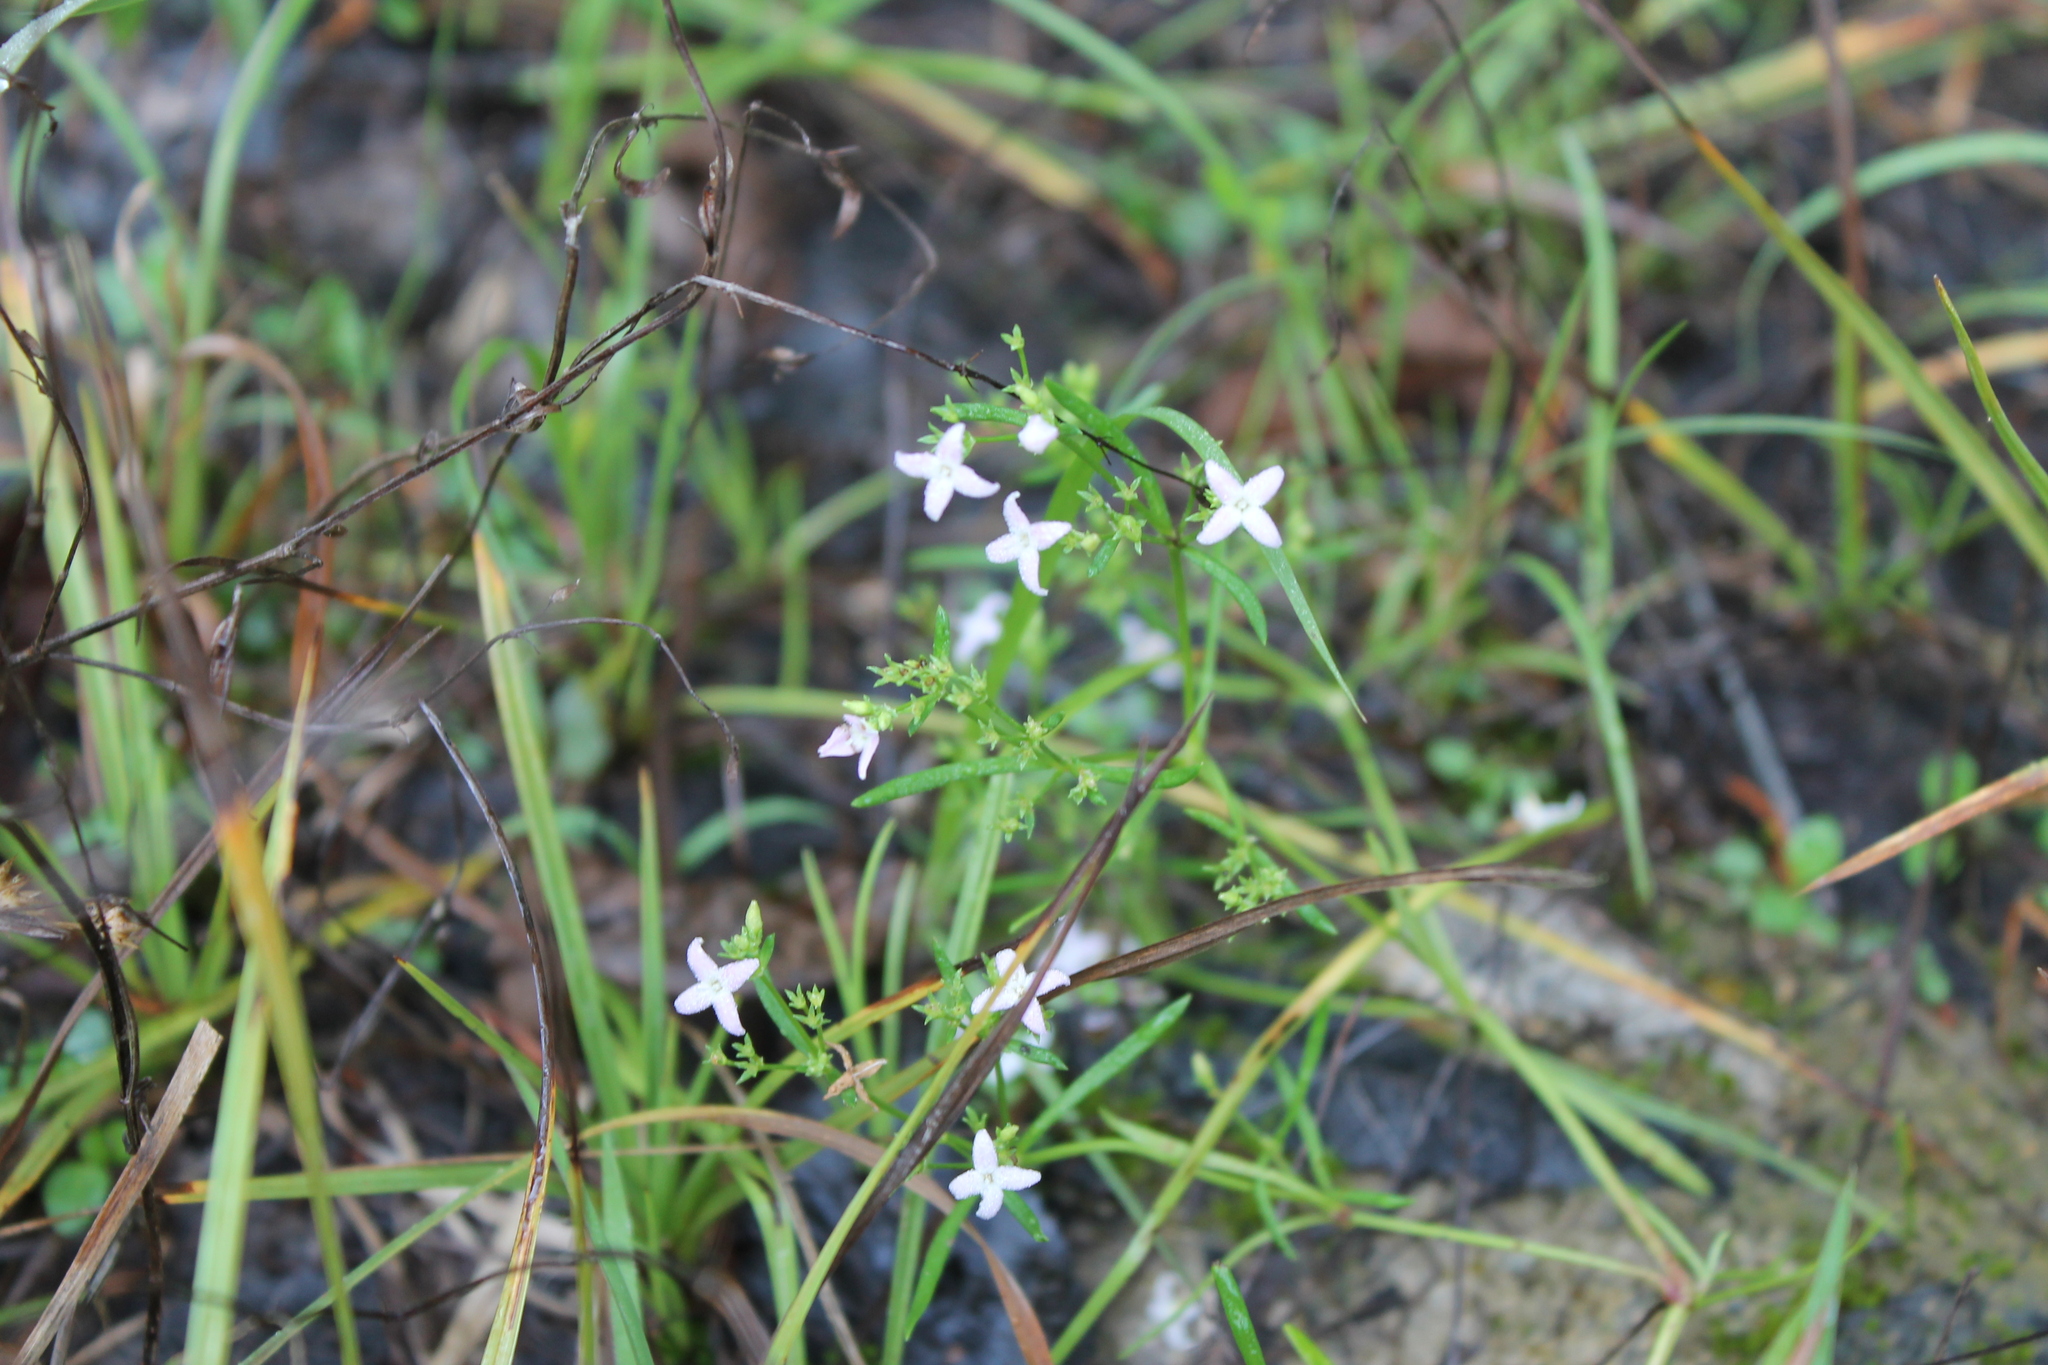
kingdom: Plantae
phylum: Tracheophyta
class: Magnoliopsida
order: Gentianales
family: Rubiaceae
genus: Stenaria
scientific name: Stenaria nigricans
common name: Diamondflowers
